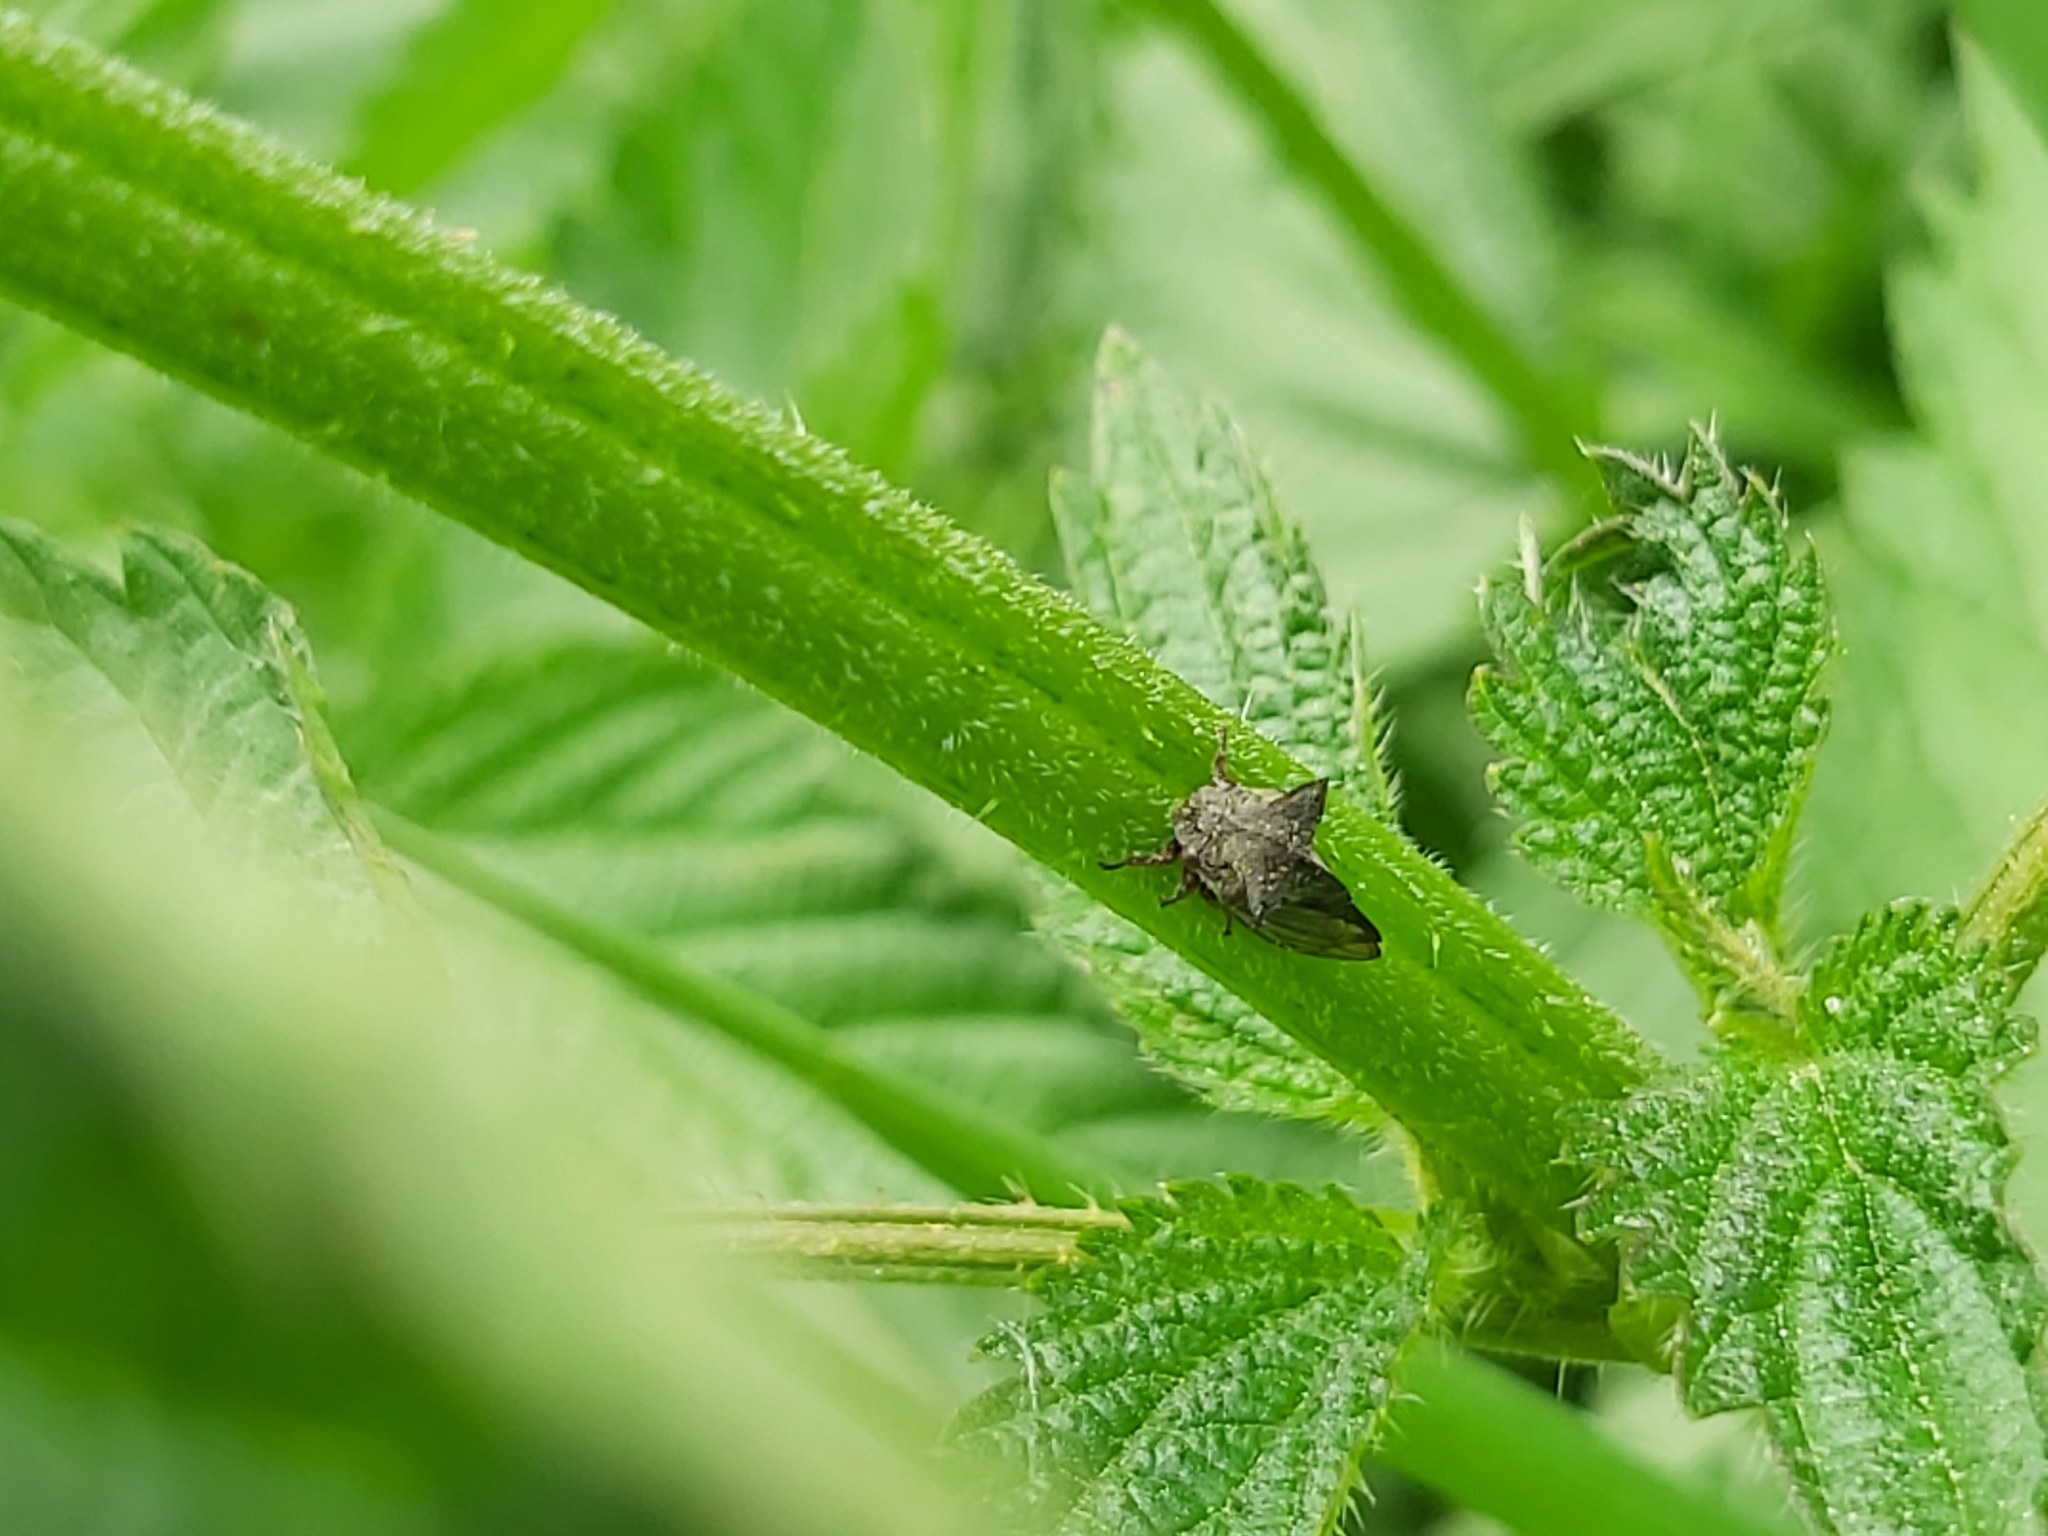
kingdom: Animalia
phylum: Arthropoda
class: Insecta
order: Hemiptera
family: Membracidae
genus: Centrotus
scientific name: Centrotus cornuta
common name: Treehopper
